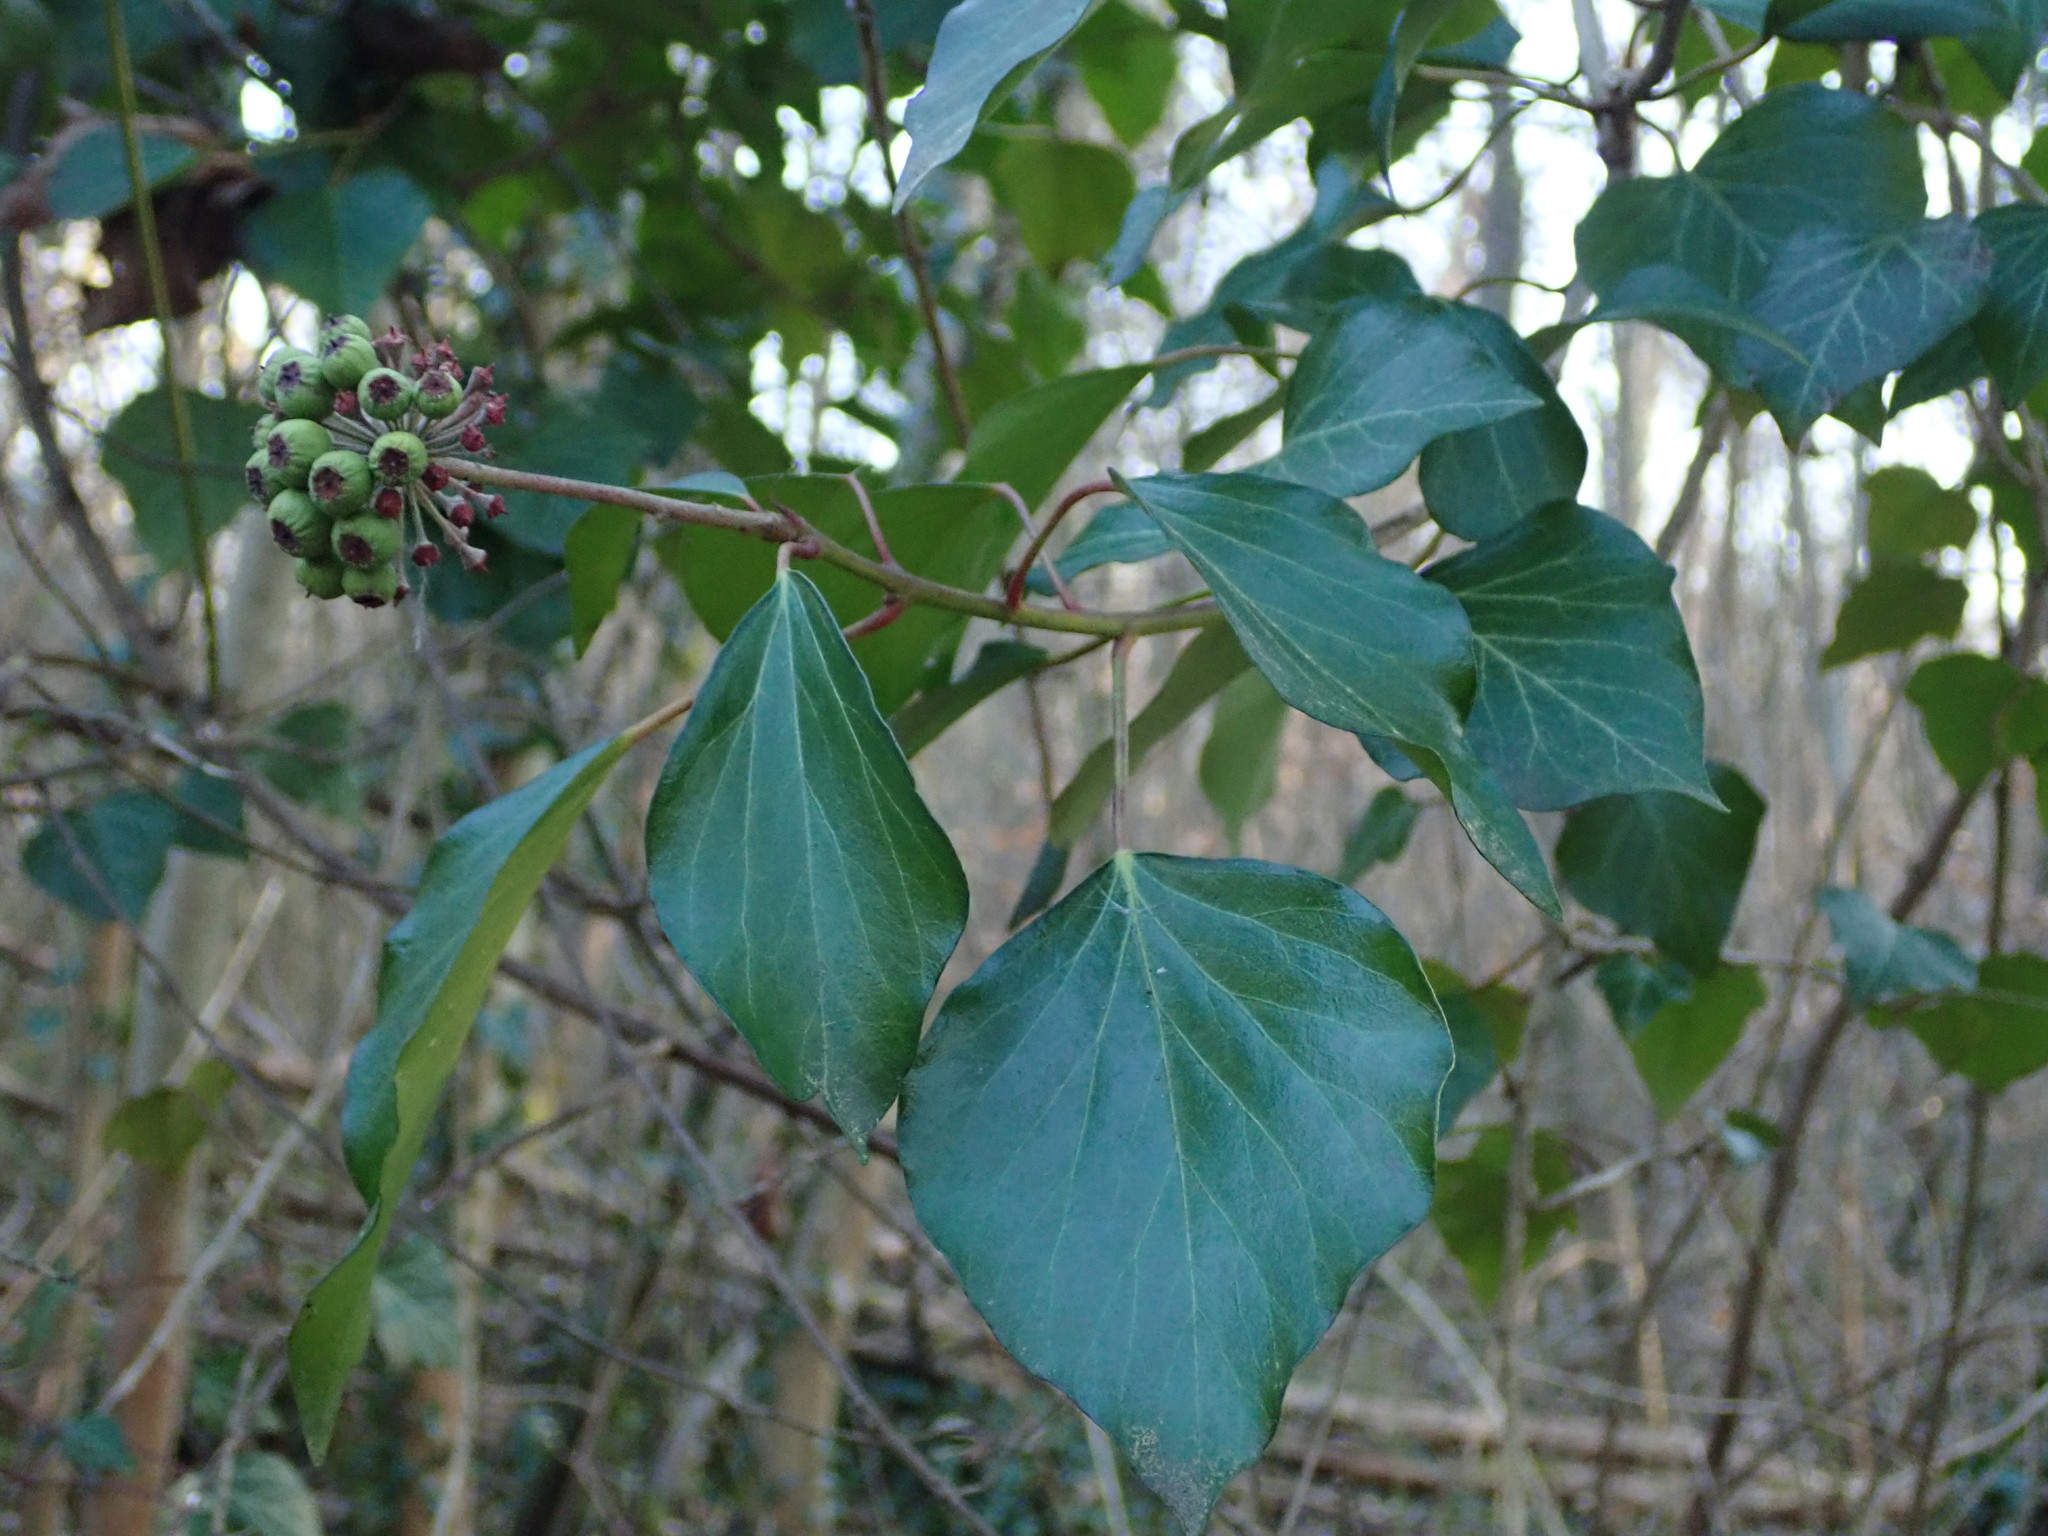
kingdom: Plantae
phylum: Tracheophyta
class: Magnoliopsida
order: Apiales
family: Araliaceae
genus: Hedera
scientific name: Hedera helix
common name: Ivy
